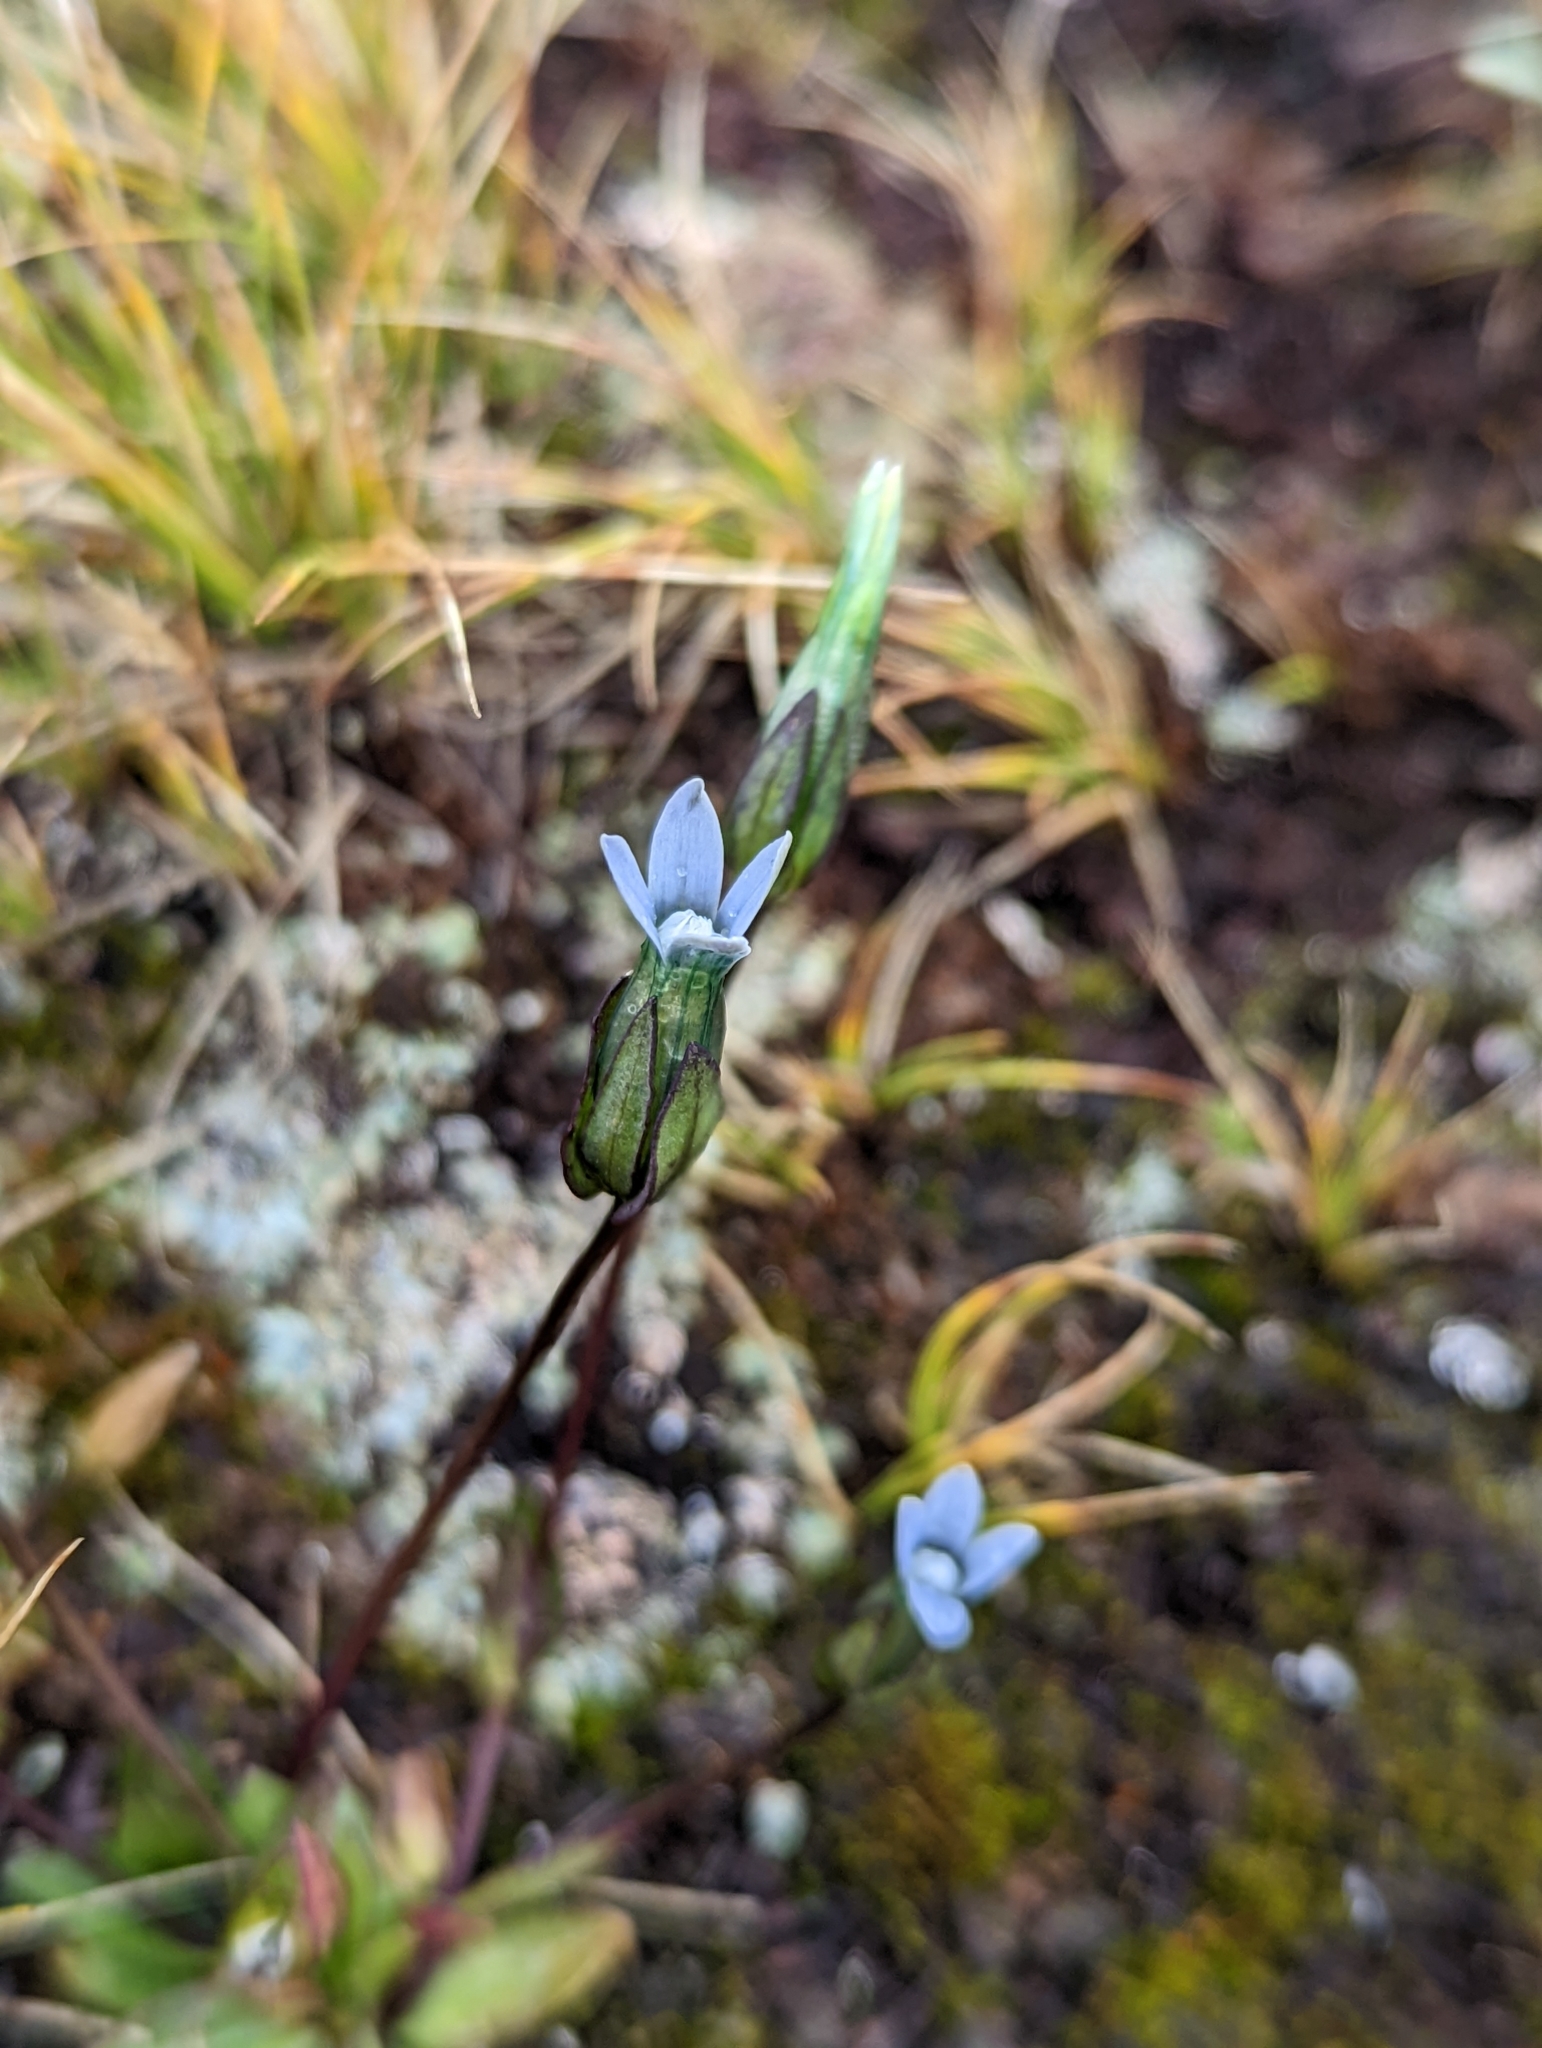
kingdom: Plantae
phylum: Tracheophyta
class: Magnoliopsida
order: Gentianales
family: Gentianaceae
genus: Comastoma
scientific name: Comastoma tenellum
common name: Dane's dwarf gentian
